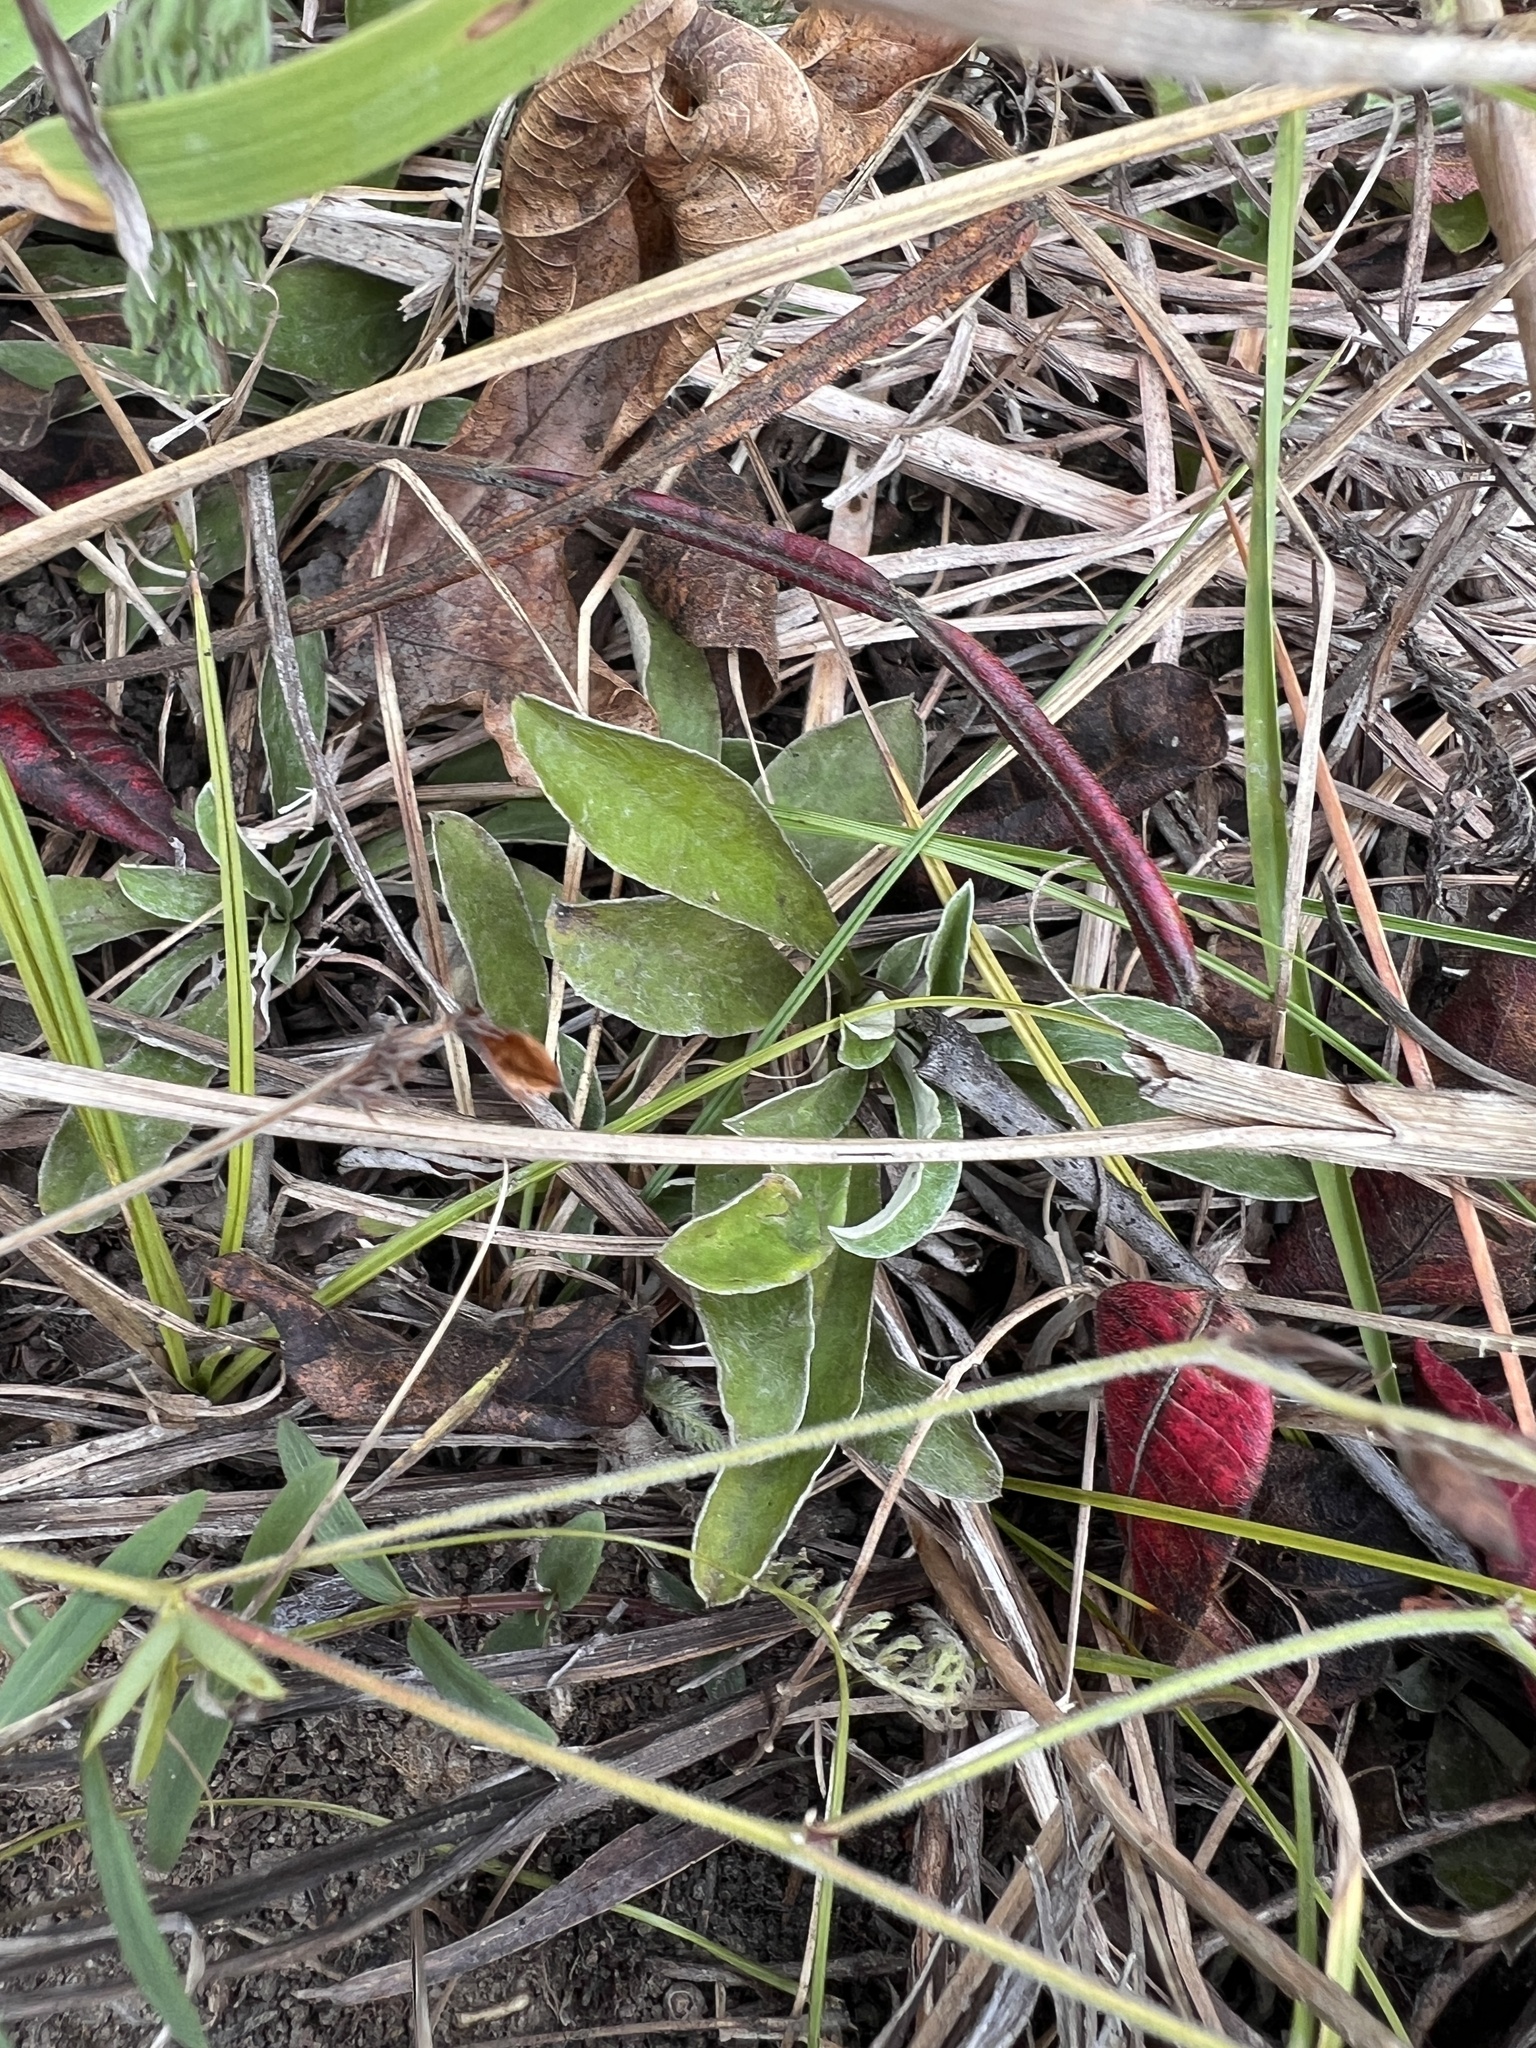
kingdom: Plantae
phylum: Tracheophyta
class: Magnoliopsida
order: Asterales
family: Asteraceae
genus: Antennaria
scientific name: Antennaria neglecta
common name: Field pussytoes
